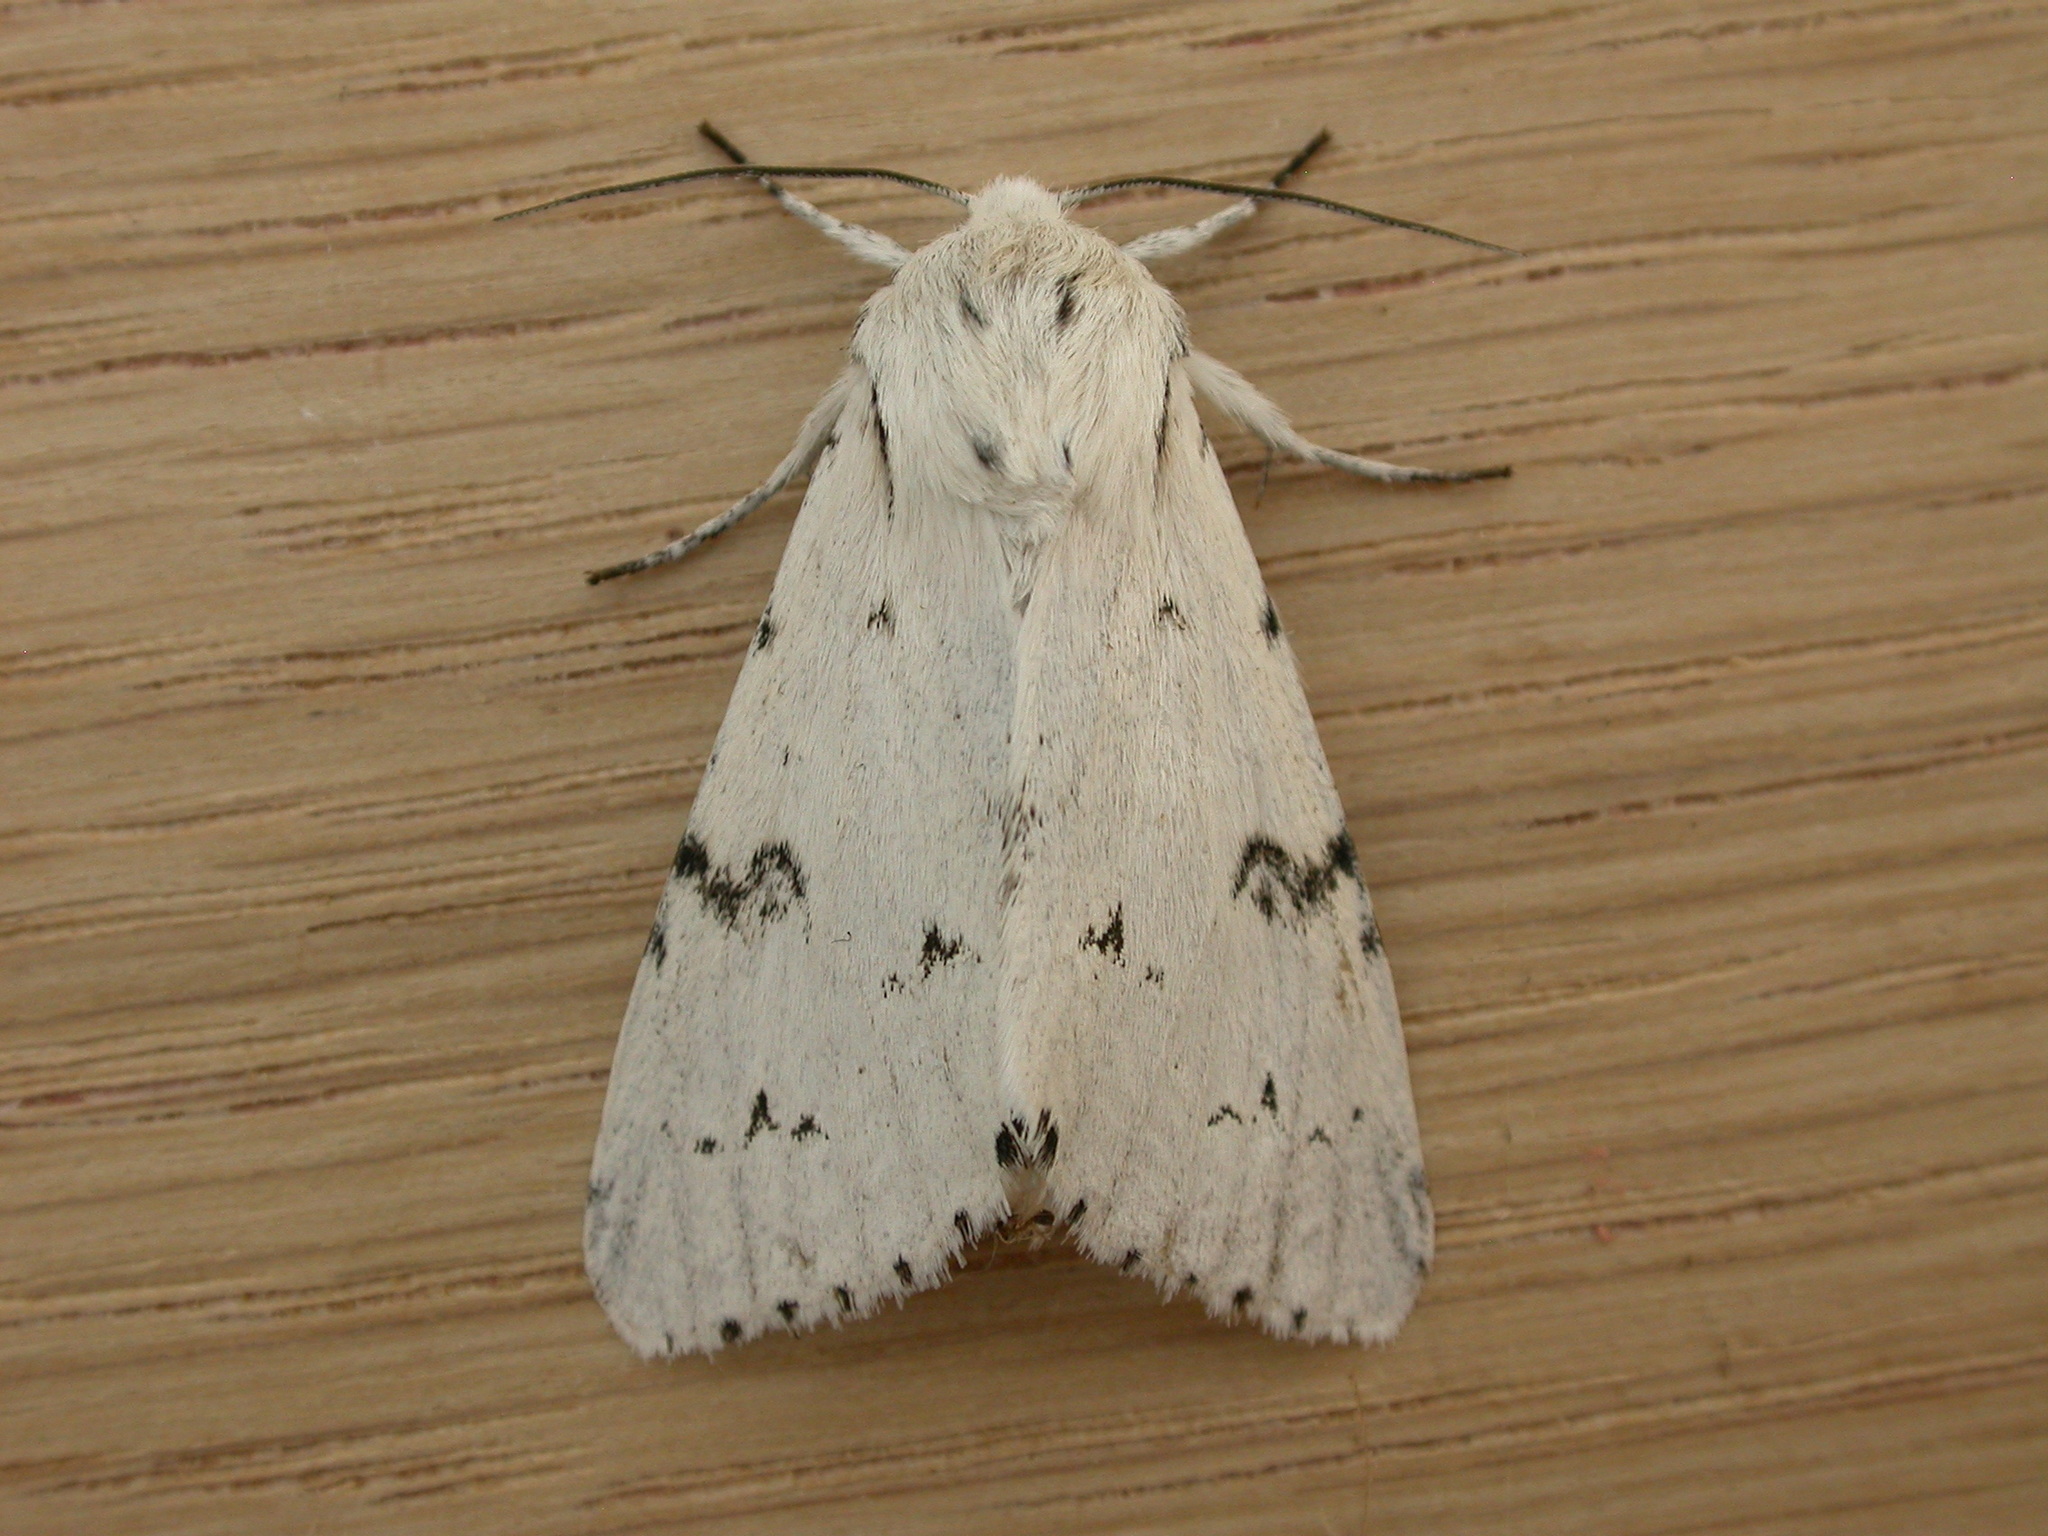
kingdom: Animalia
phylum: Arthropoda
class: Insecta
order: Lepidoptera
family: Noctuidae
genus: Acronicta
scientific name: Acronicta leporina
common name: Miller
